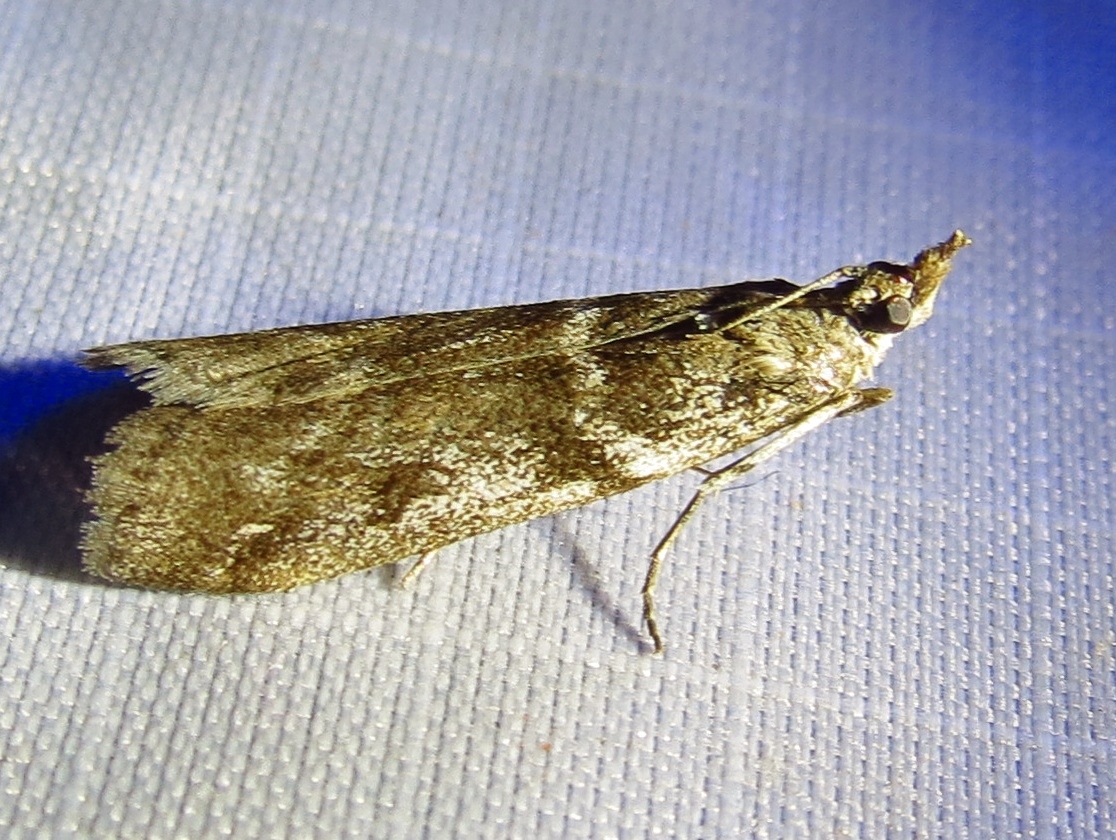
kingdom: Animalia
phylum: Arthropoda
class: Insecta
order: Lepidoptera
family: Pyralidae
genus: Zophodia
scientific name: Zophodia convolutella
